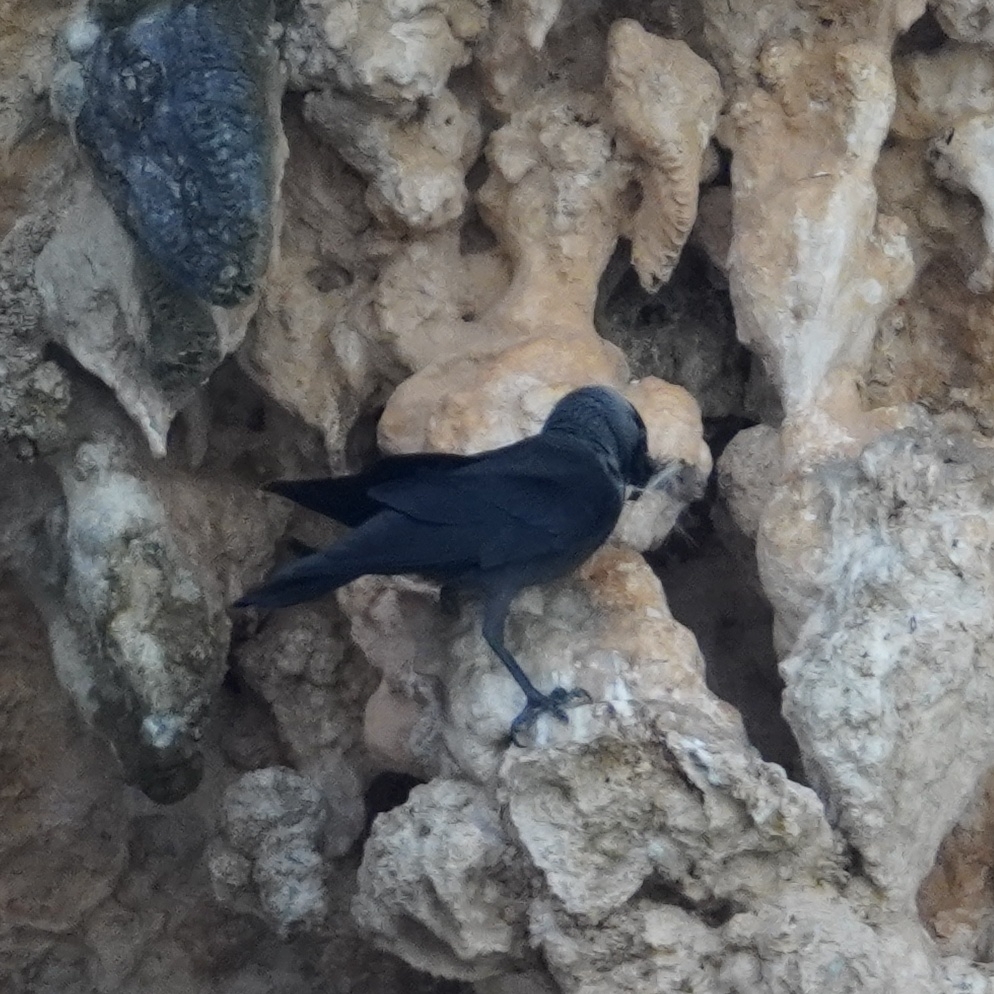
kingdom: Animalia
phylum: Chordata
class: Aves
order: Passeriformes
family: Corvidae
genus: Coloeus
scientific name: Coloeus monedula
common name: Western jackdaw
